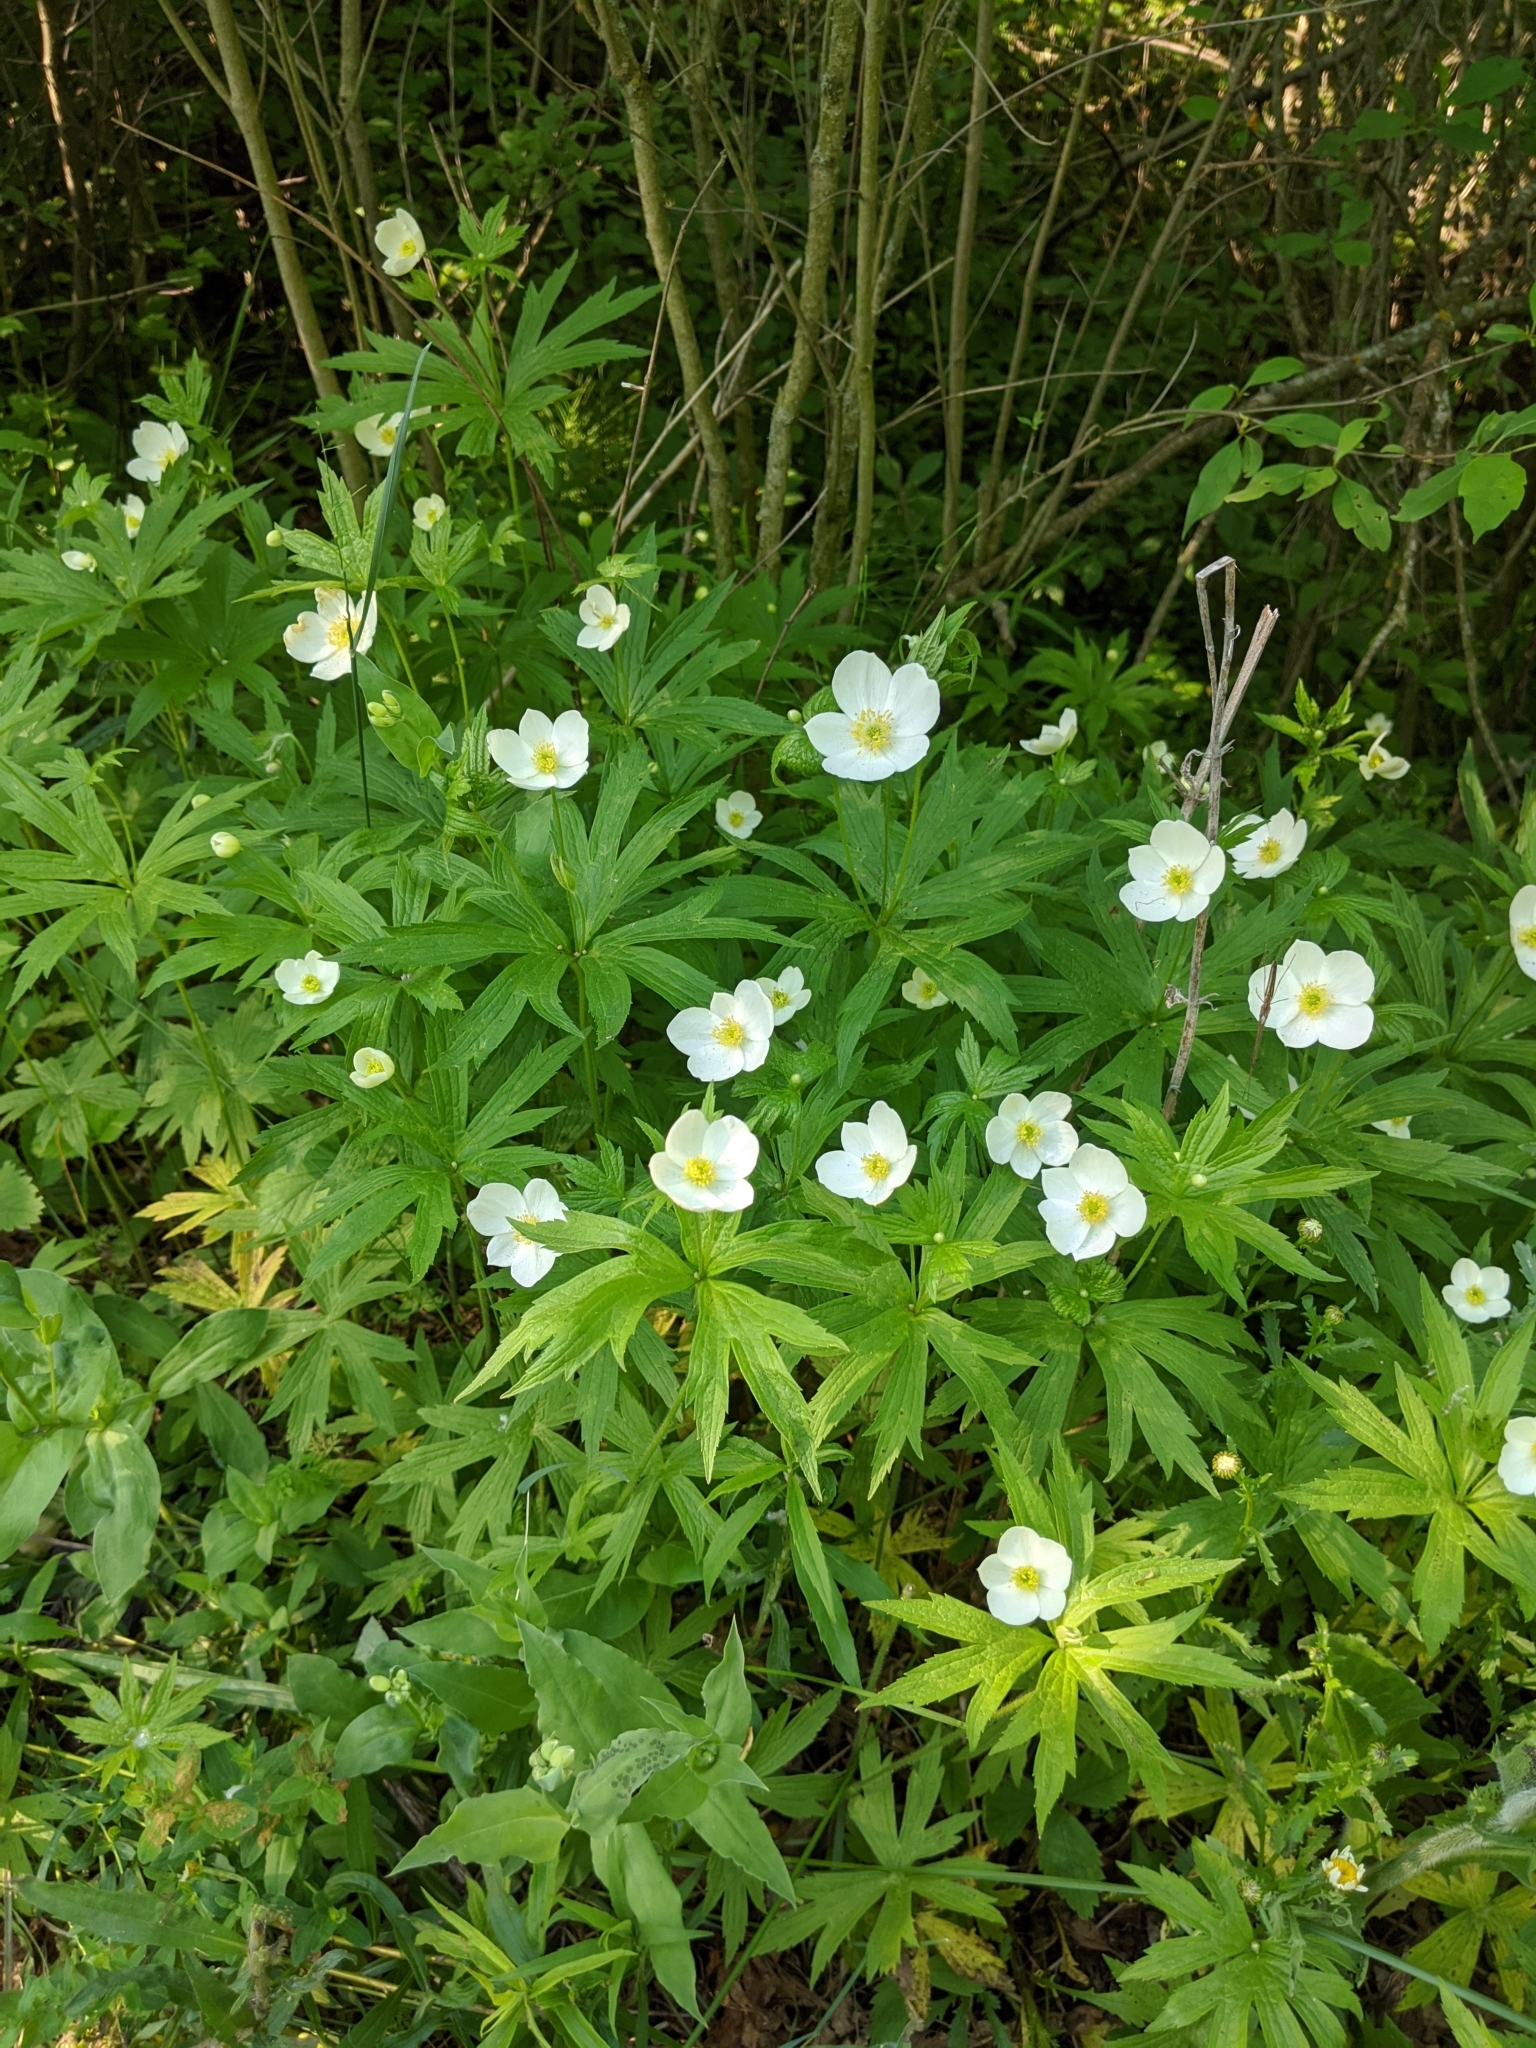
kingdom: Plantae
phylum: Tracheophyta
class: Magnoliopsida
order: Ranunculales
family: Ranunculaceae
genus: Anemonastrum
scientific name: Anemonastrum canadense
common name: Canada anemone
